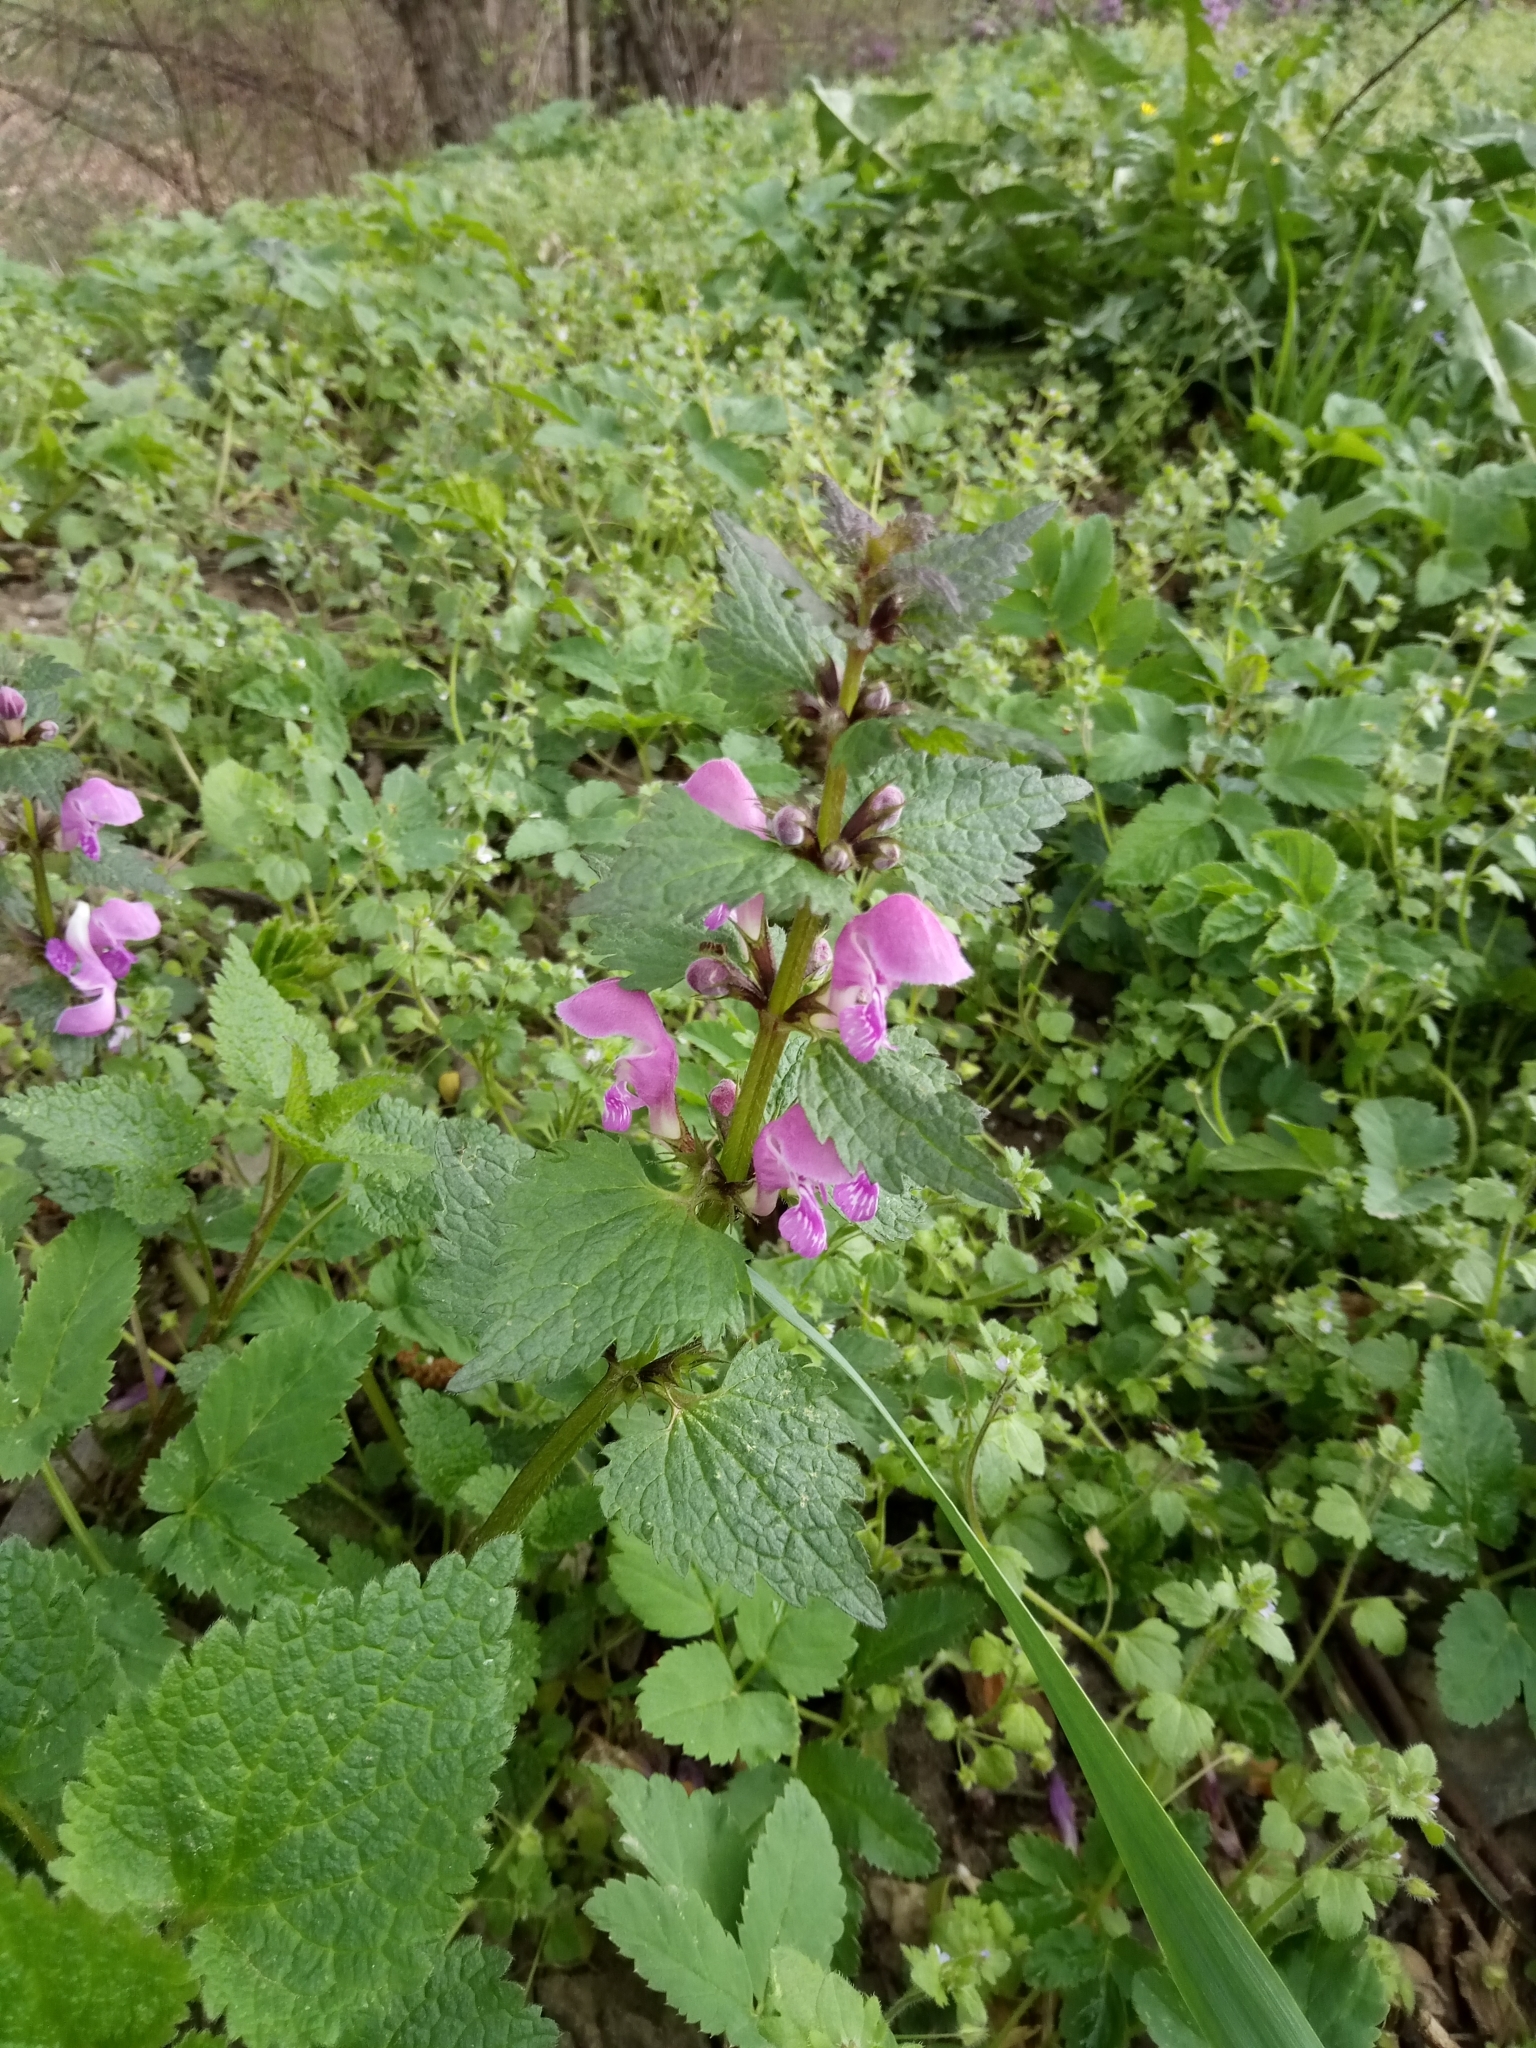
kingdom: Plantae
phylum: Tracheophyta
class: Magnoliopsida
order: Lamiales
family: Lamiaceae
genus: Lamium
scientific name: Lamium maculatum
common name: Spotted dead-nettle
